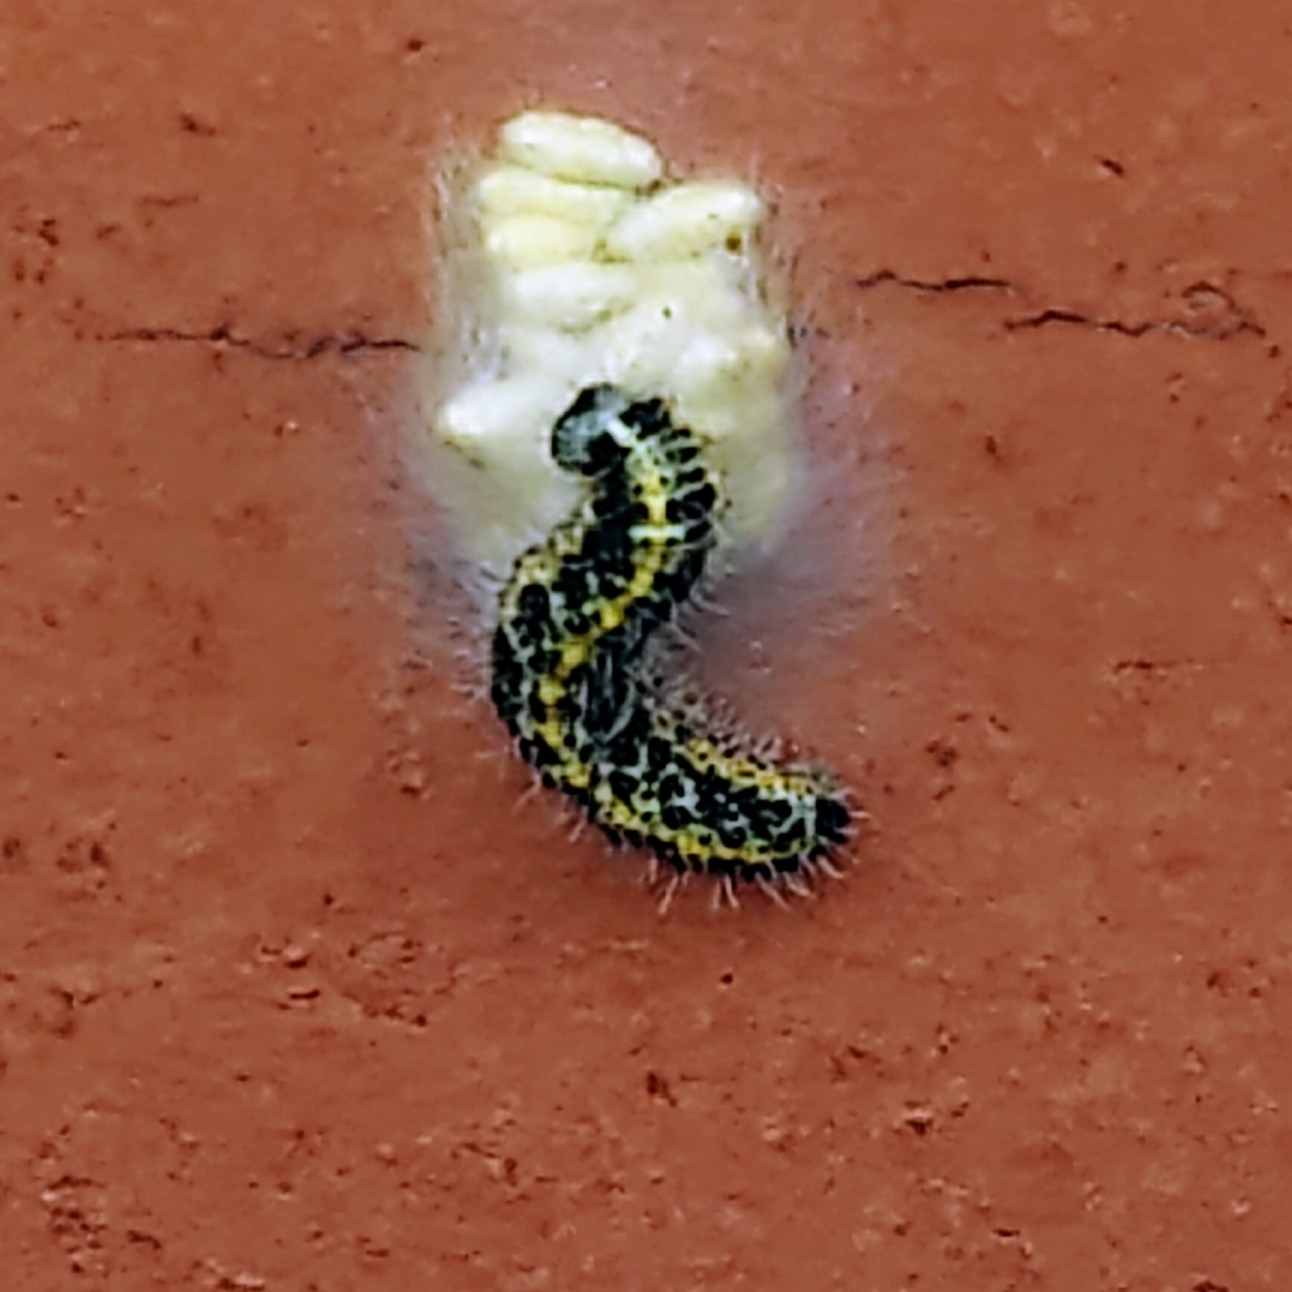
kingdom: Animalia
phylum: Arthropoda
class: Insecta
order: Lepidoptera
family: Pieridae
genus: Pieris
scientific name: Pieris brassicae
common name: Large white
